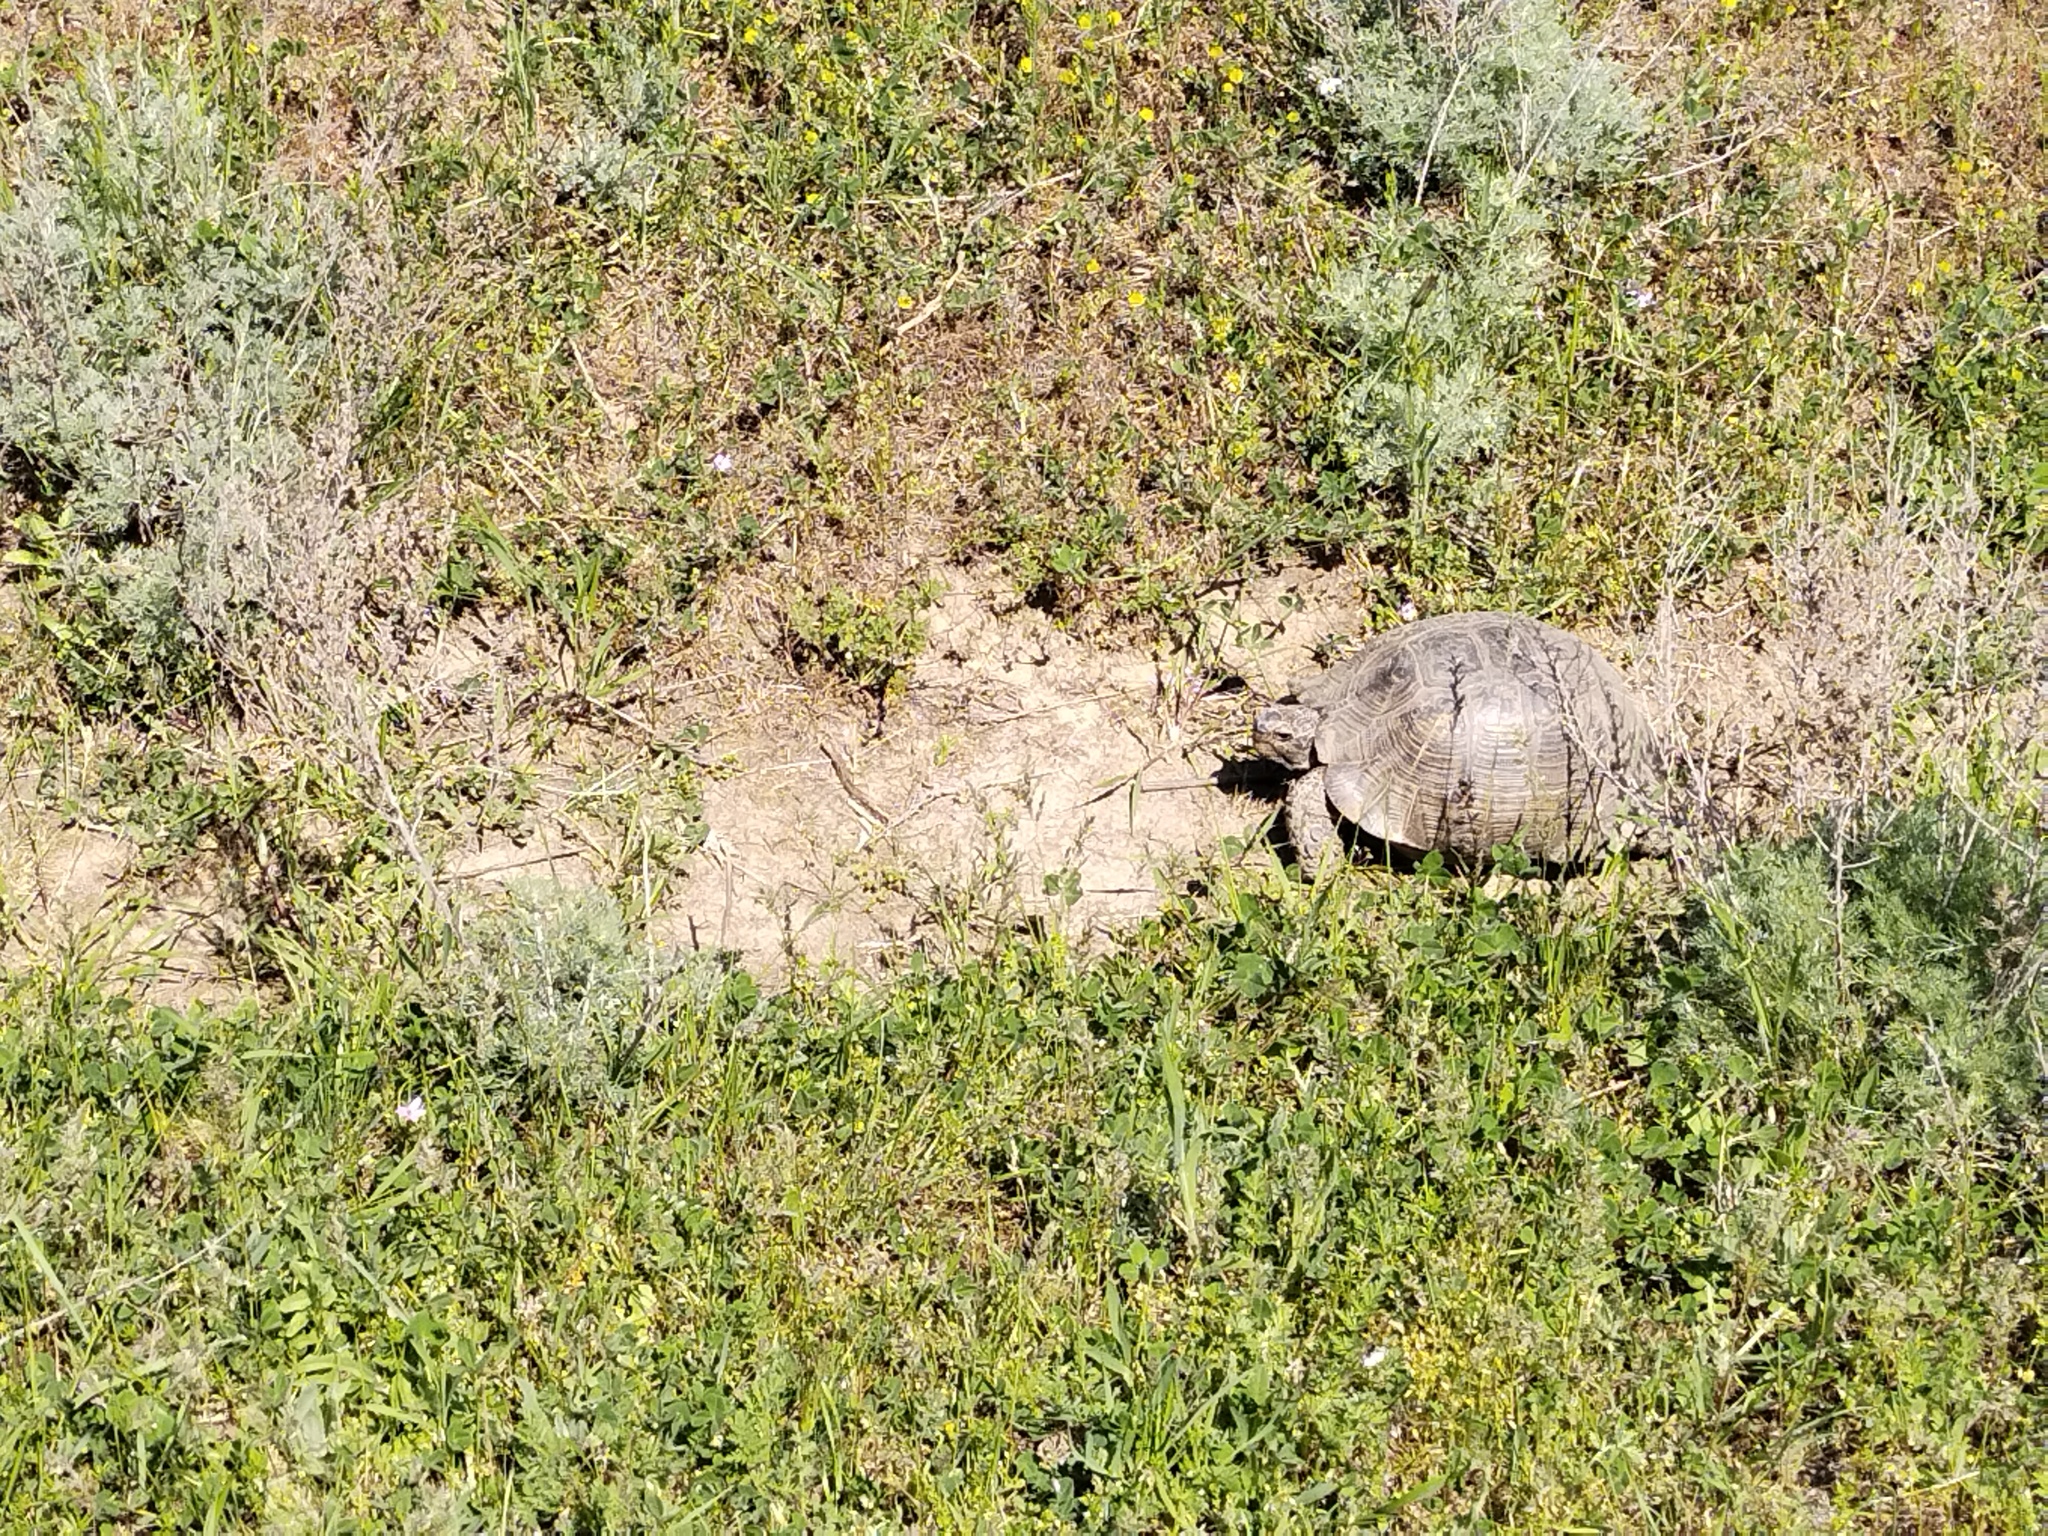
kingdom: Animalia
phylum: Chordata
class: Testudines
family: Testudinidae
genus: Testudo
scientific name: Testudo graeca
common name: Common tortoise
